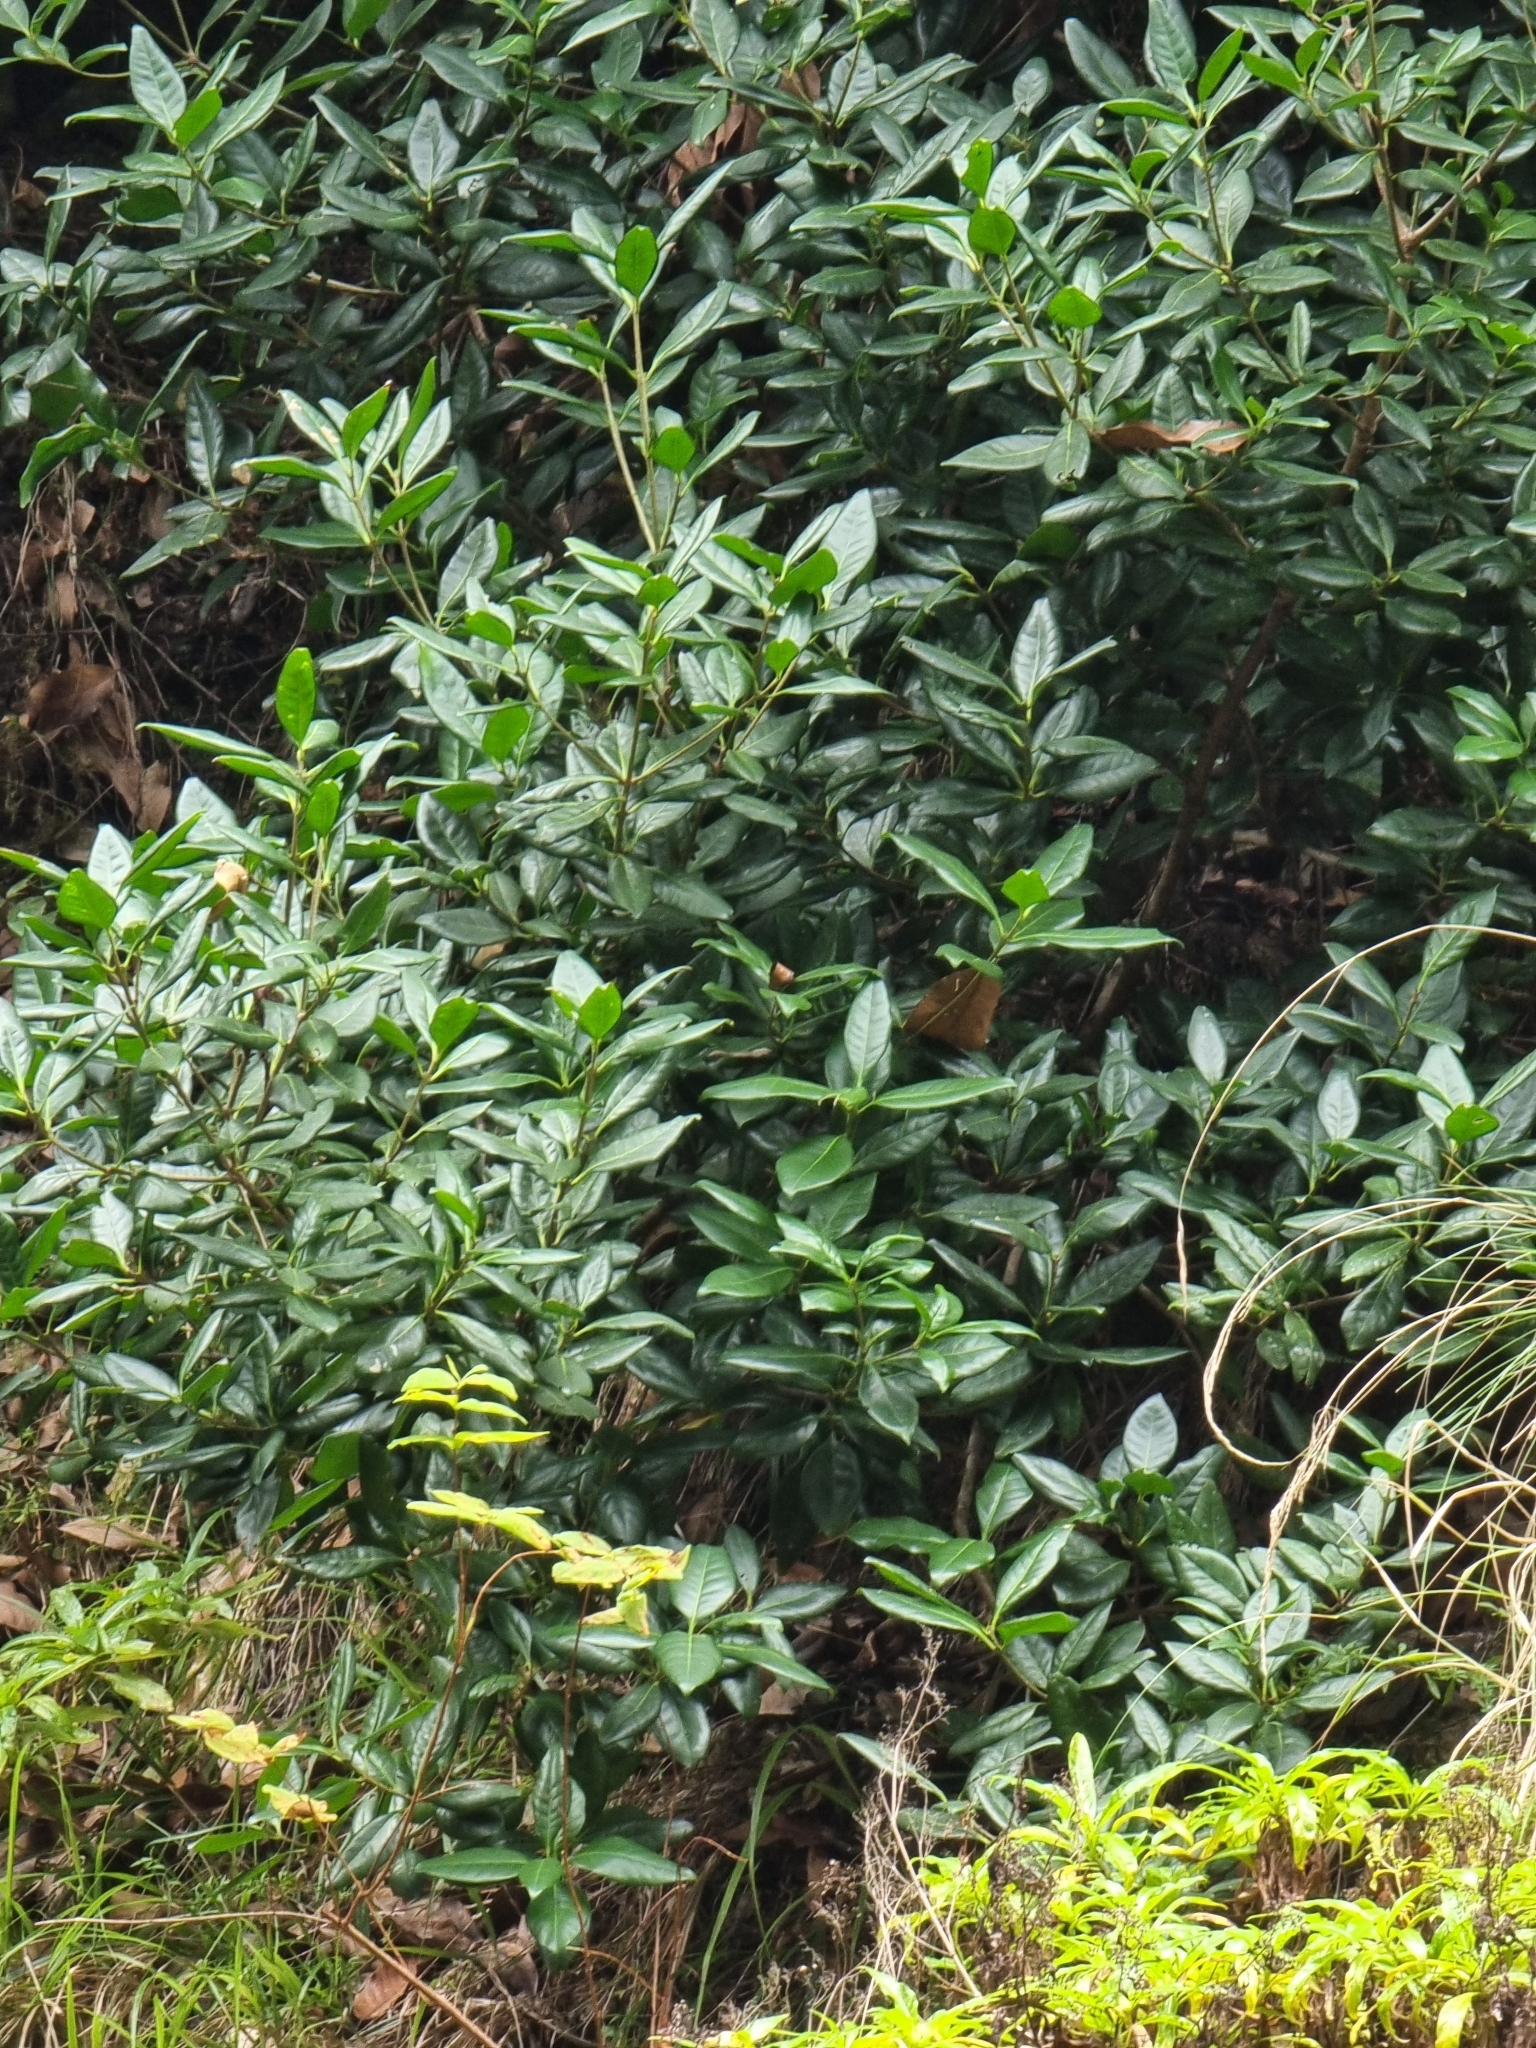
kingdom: Plantae
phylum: Tracheophyta
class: Magnoliopsida
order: Lamiales
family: Oleaceae
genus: Picconia
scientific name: Picconia excelsa
